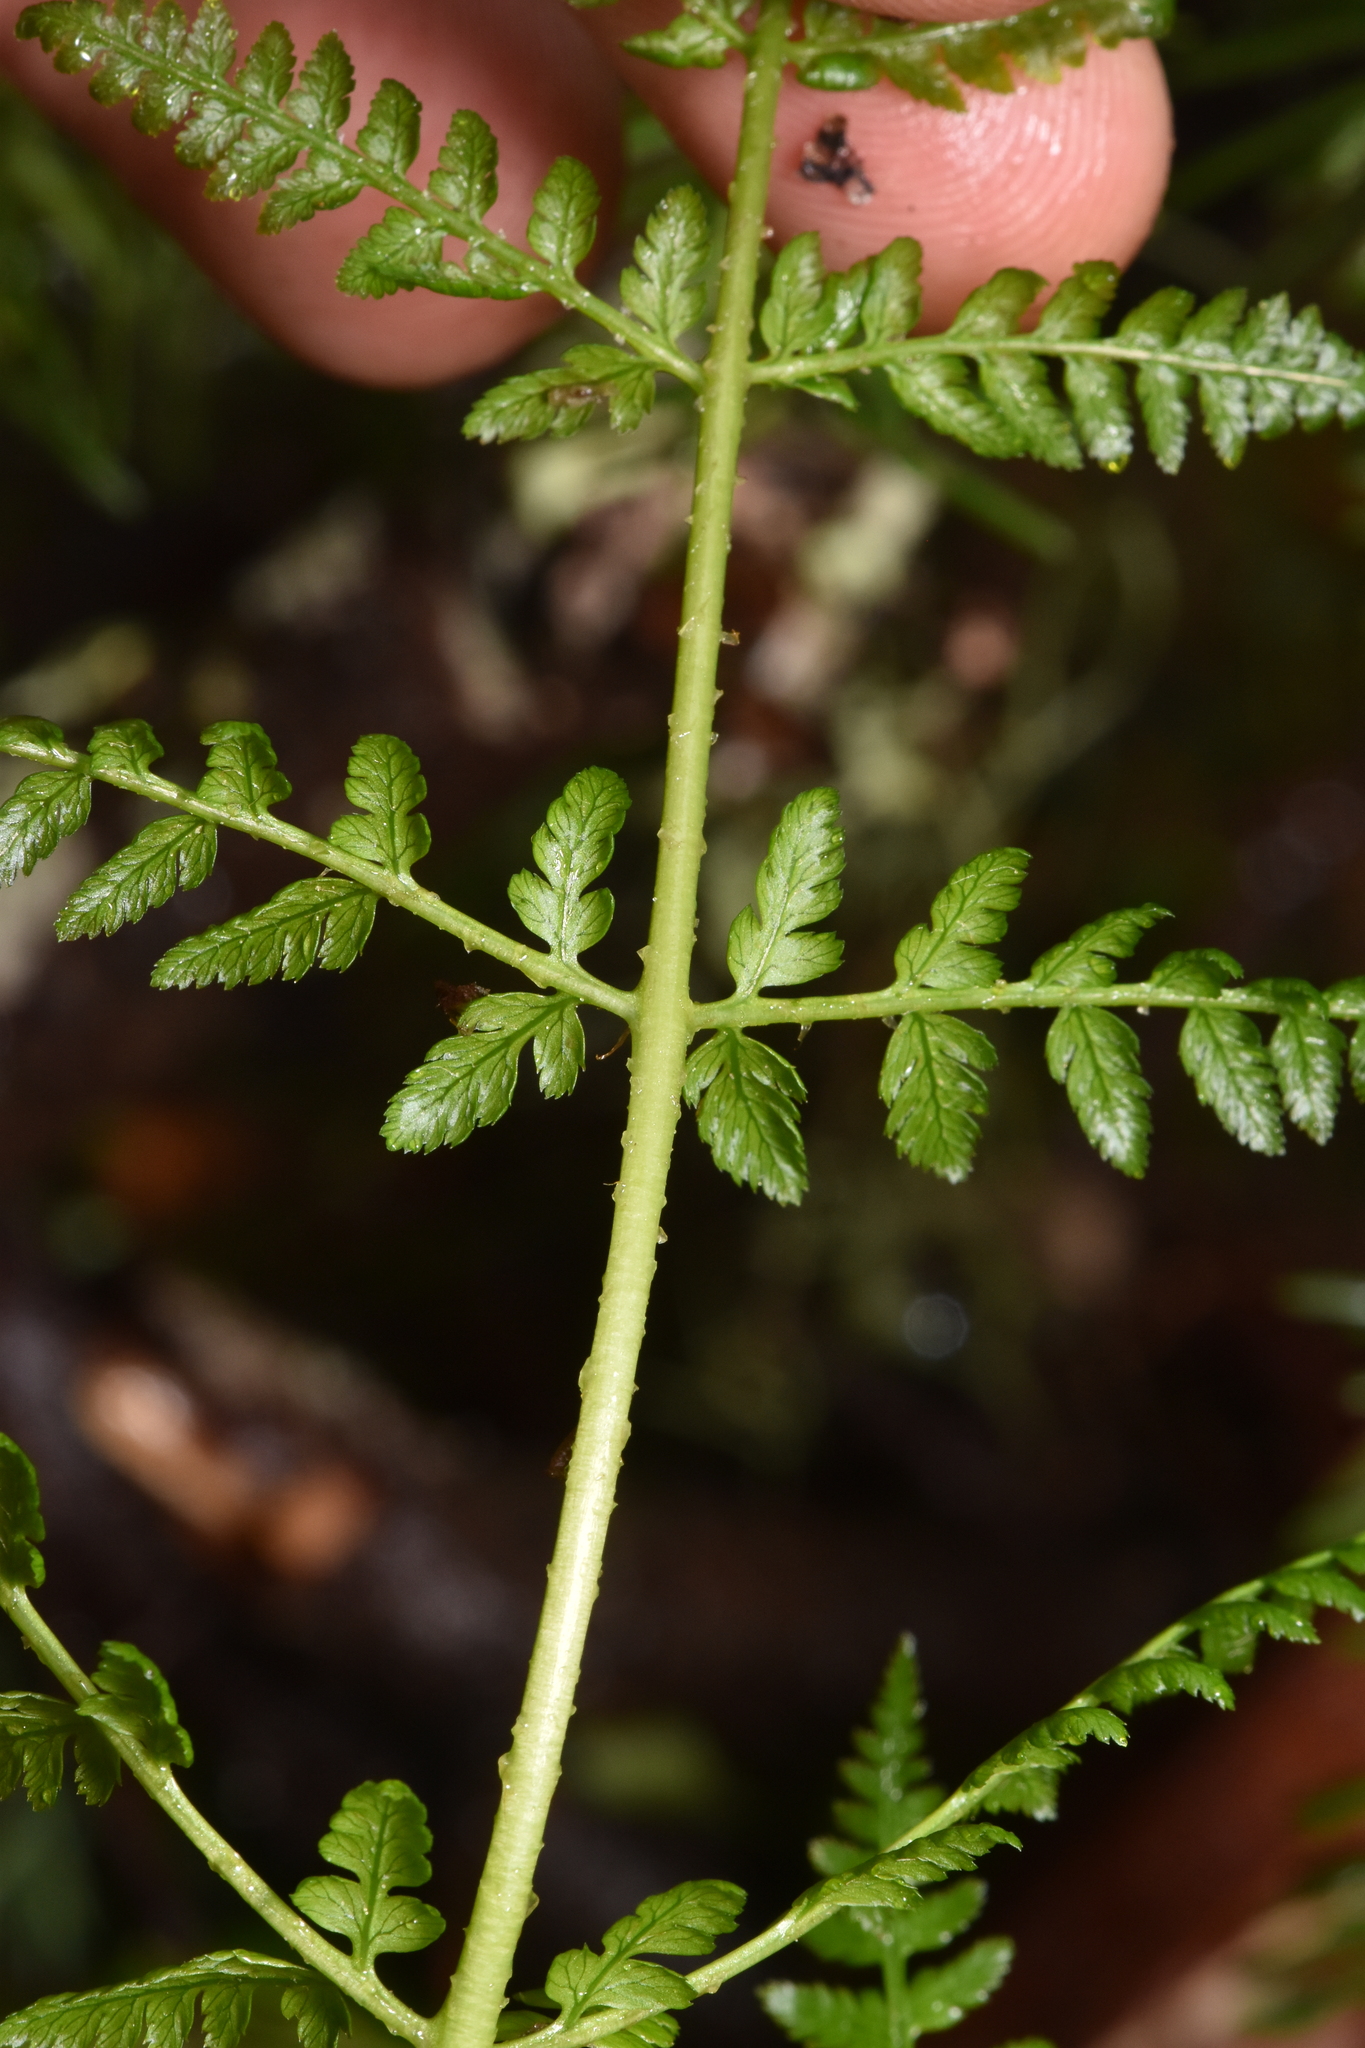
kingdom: Plantae
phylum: Tracheophyta
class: Polypodiopsida
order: Polypodiales
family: Dryopteridaceae
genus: Dryopteris
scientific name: Dryopteris expansa
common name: Northern buckler fern
